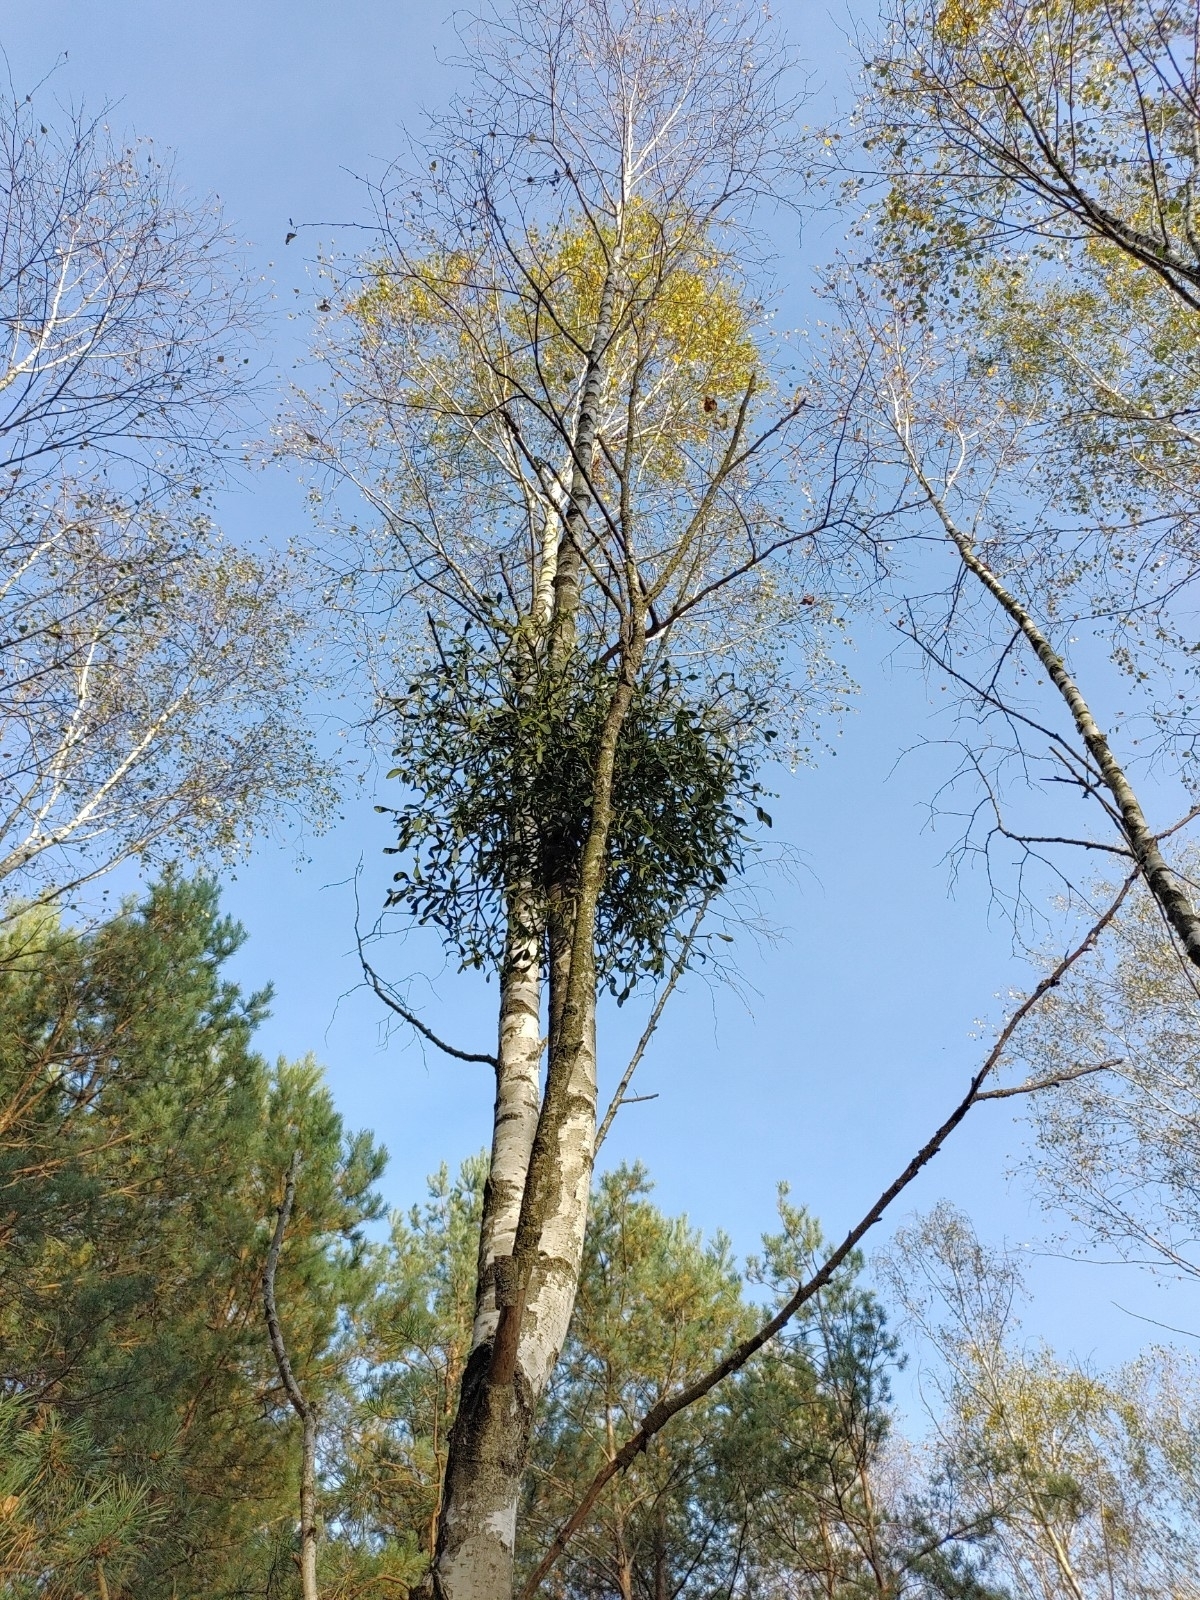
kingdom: Plantae
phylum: Tracheophyta
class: Magnoliopsida
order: Santalales
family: Viscaceae
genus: Viscum
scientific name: Viscum album
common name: Mistletoe
